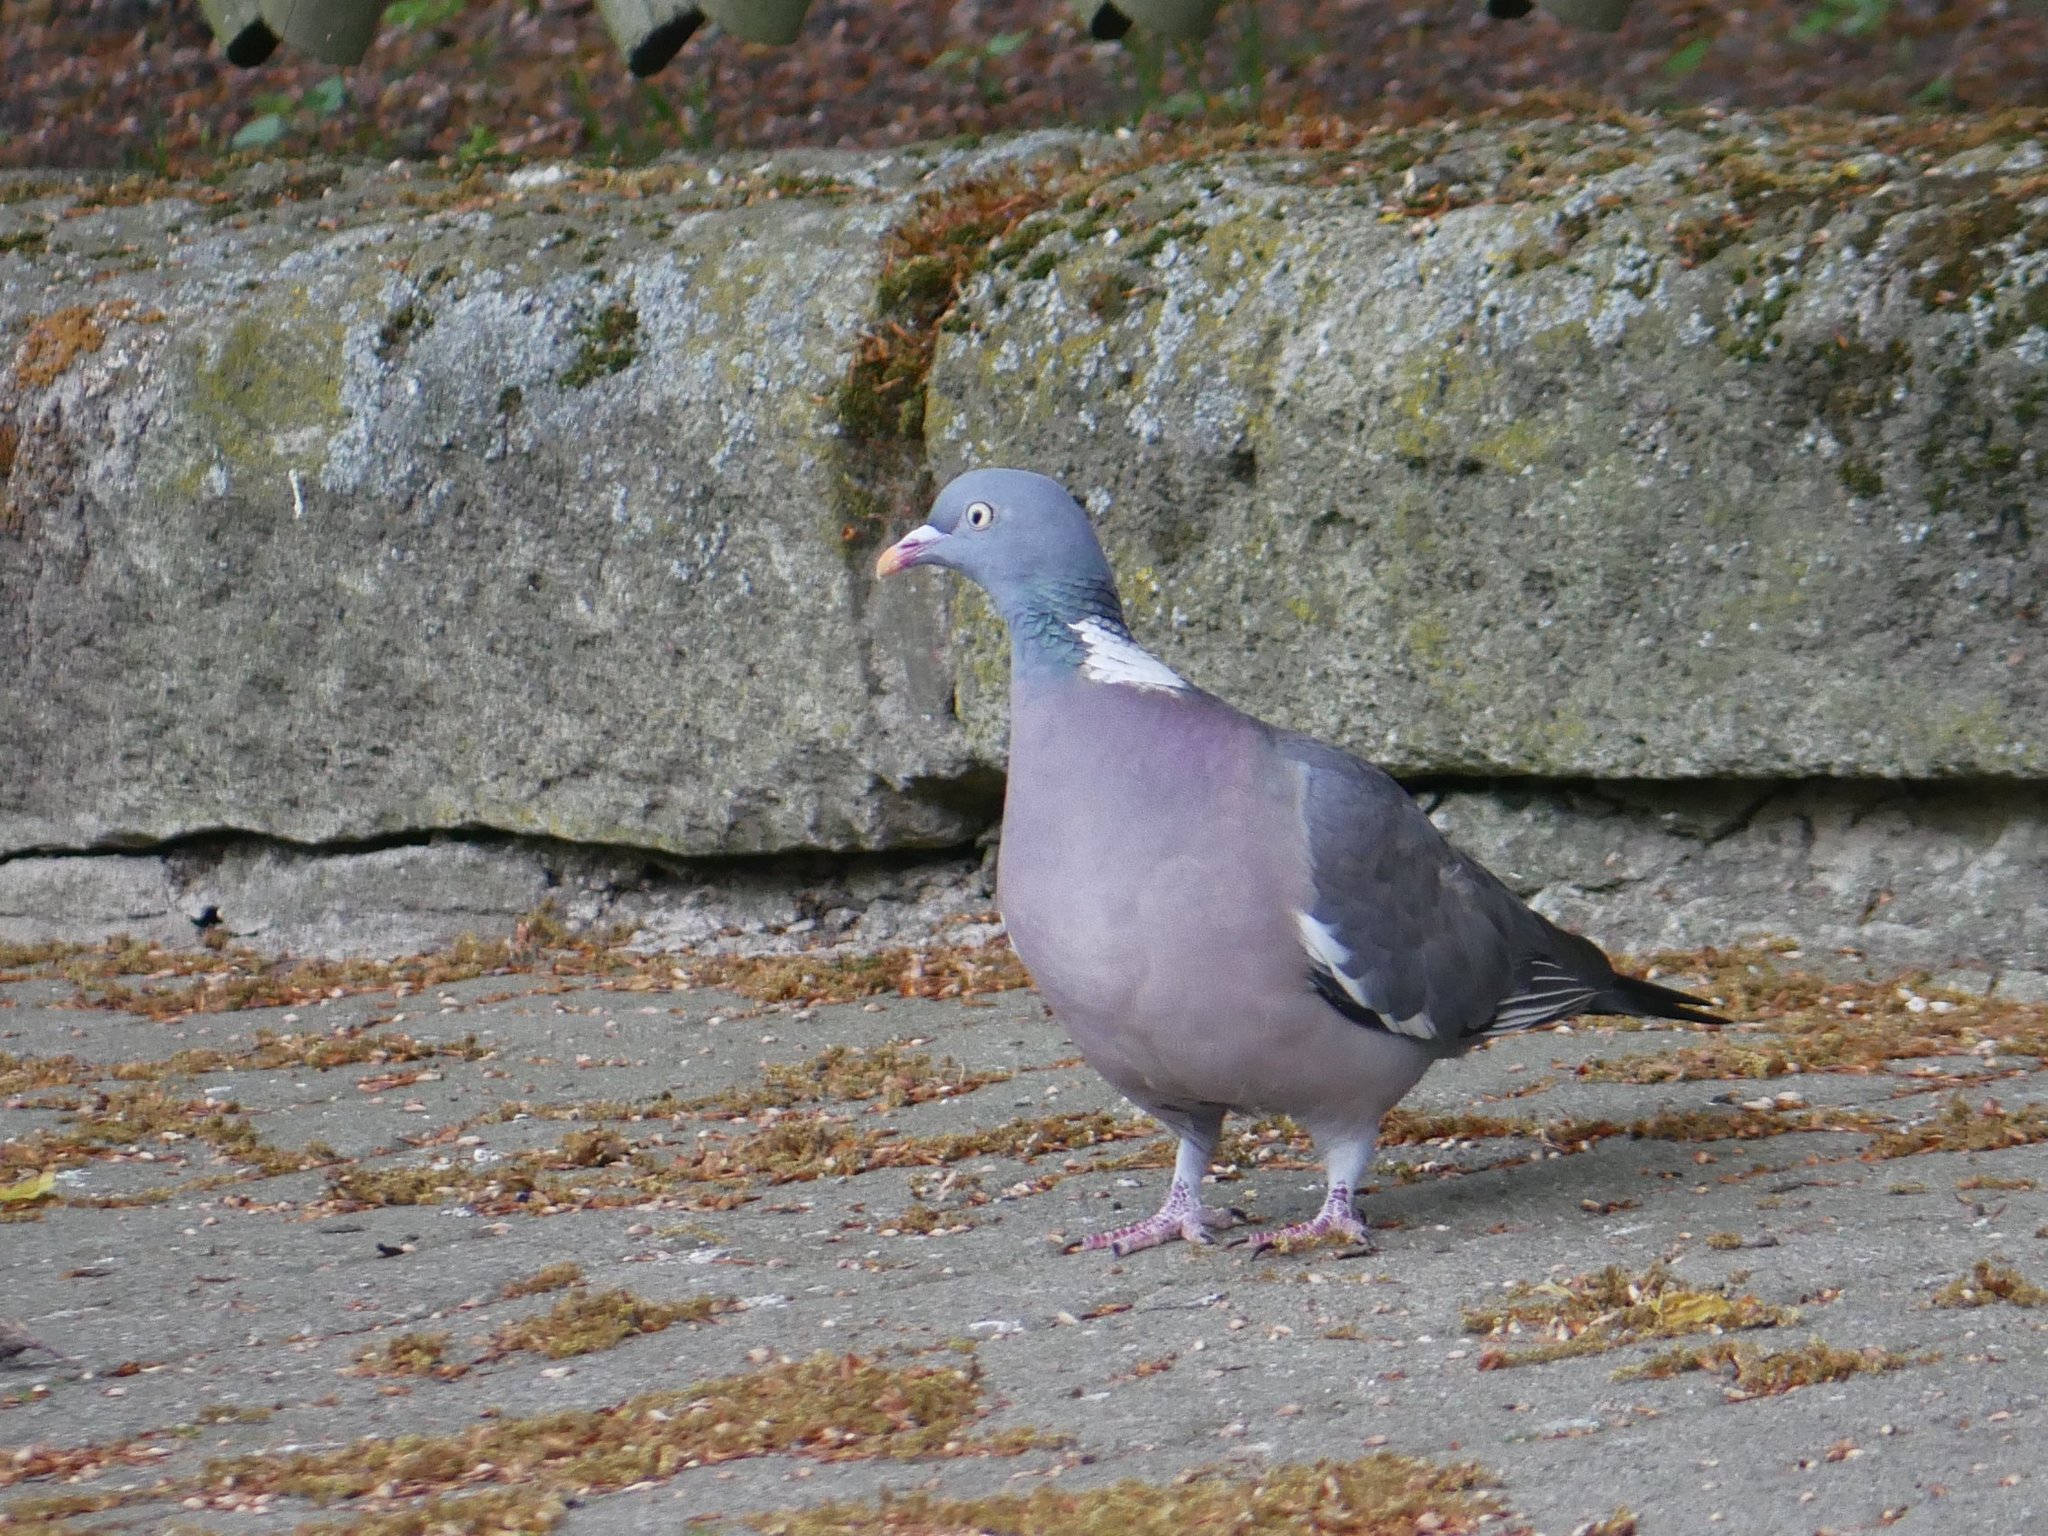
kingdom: Animalia
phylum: Chordata
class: Aves
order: Columbiformes
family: Columbidae
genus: Columba
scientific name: Columba palumbus
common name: Common wood pigeon
